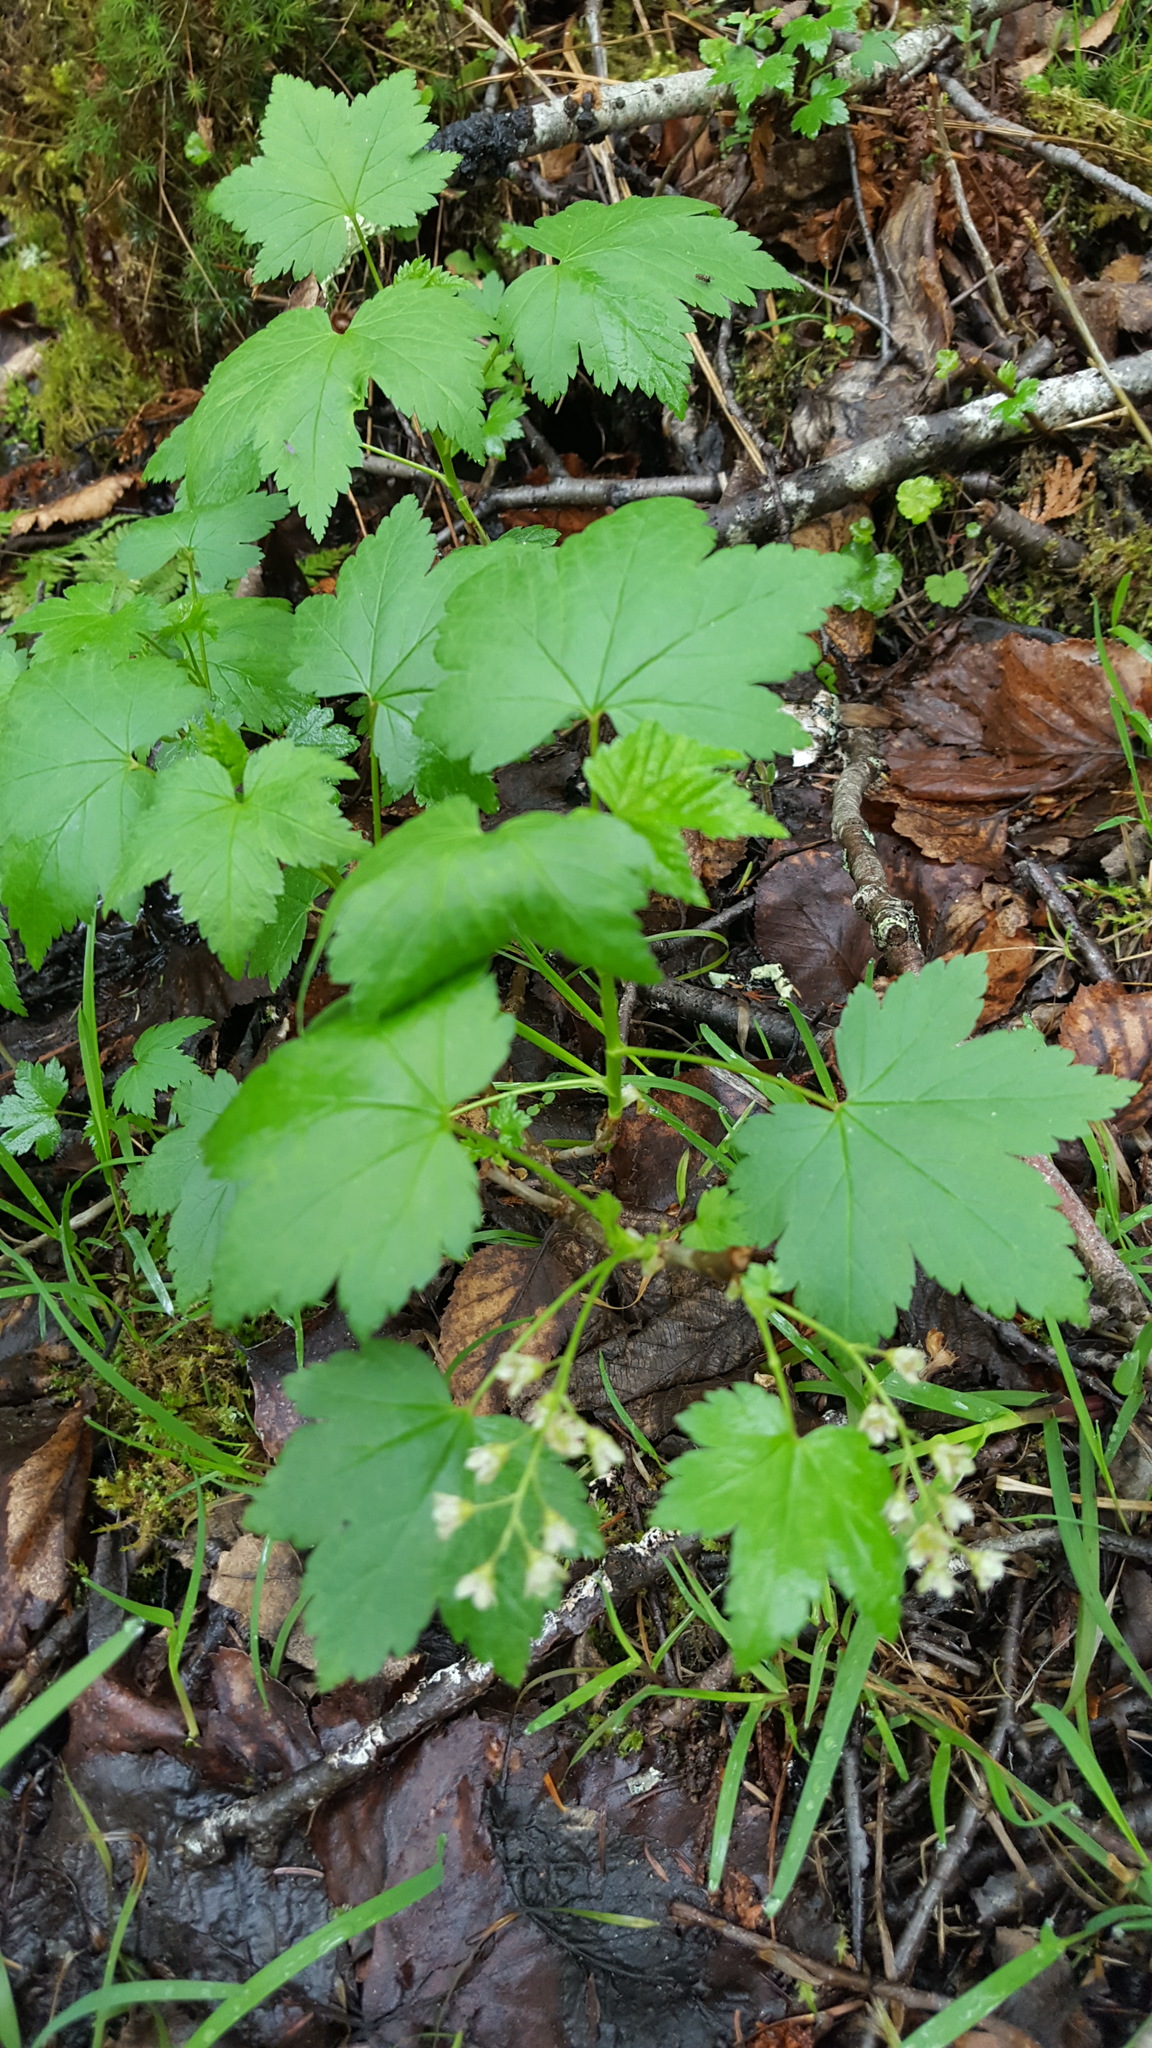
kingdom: Plantae
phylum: Tracheophyta
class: Magnoliopsida
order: Saxifragales
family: Grossulariaceae
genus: Ribes
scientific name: Ribes glandulosum
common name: Skunk currant
